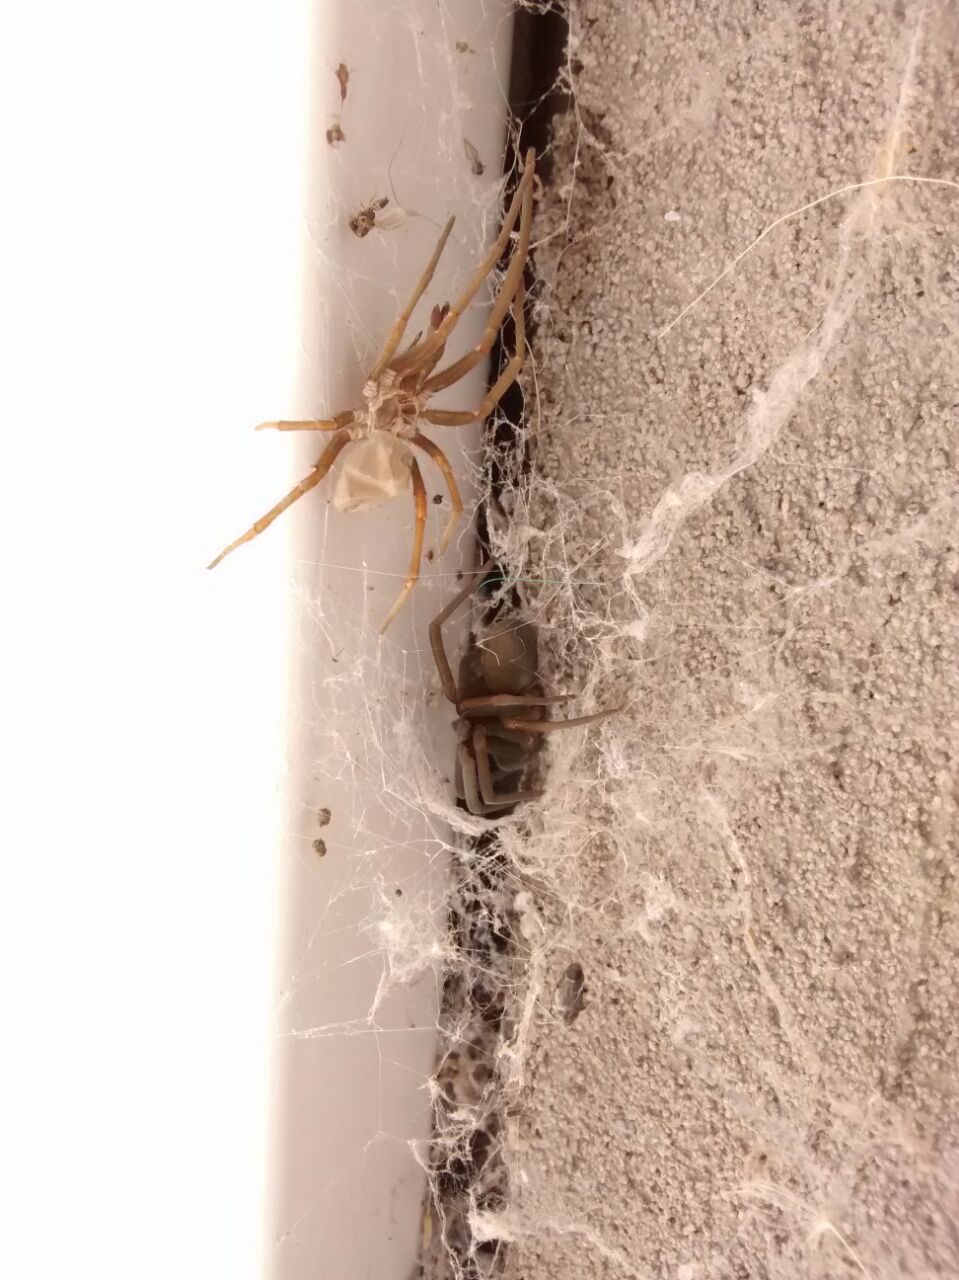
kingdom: Animalia
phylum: Arthropoda
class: Arachnida
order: Araneae
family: Filistatidae
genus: Kukulcania
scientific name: Kukulcania hibernalis
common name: Crevice weaver
